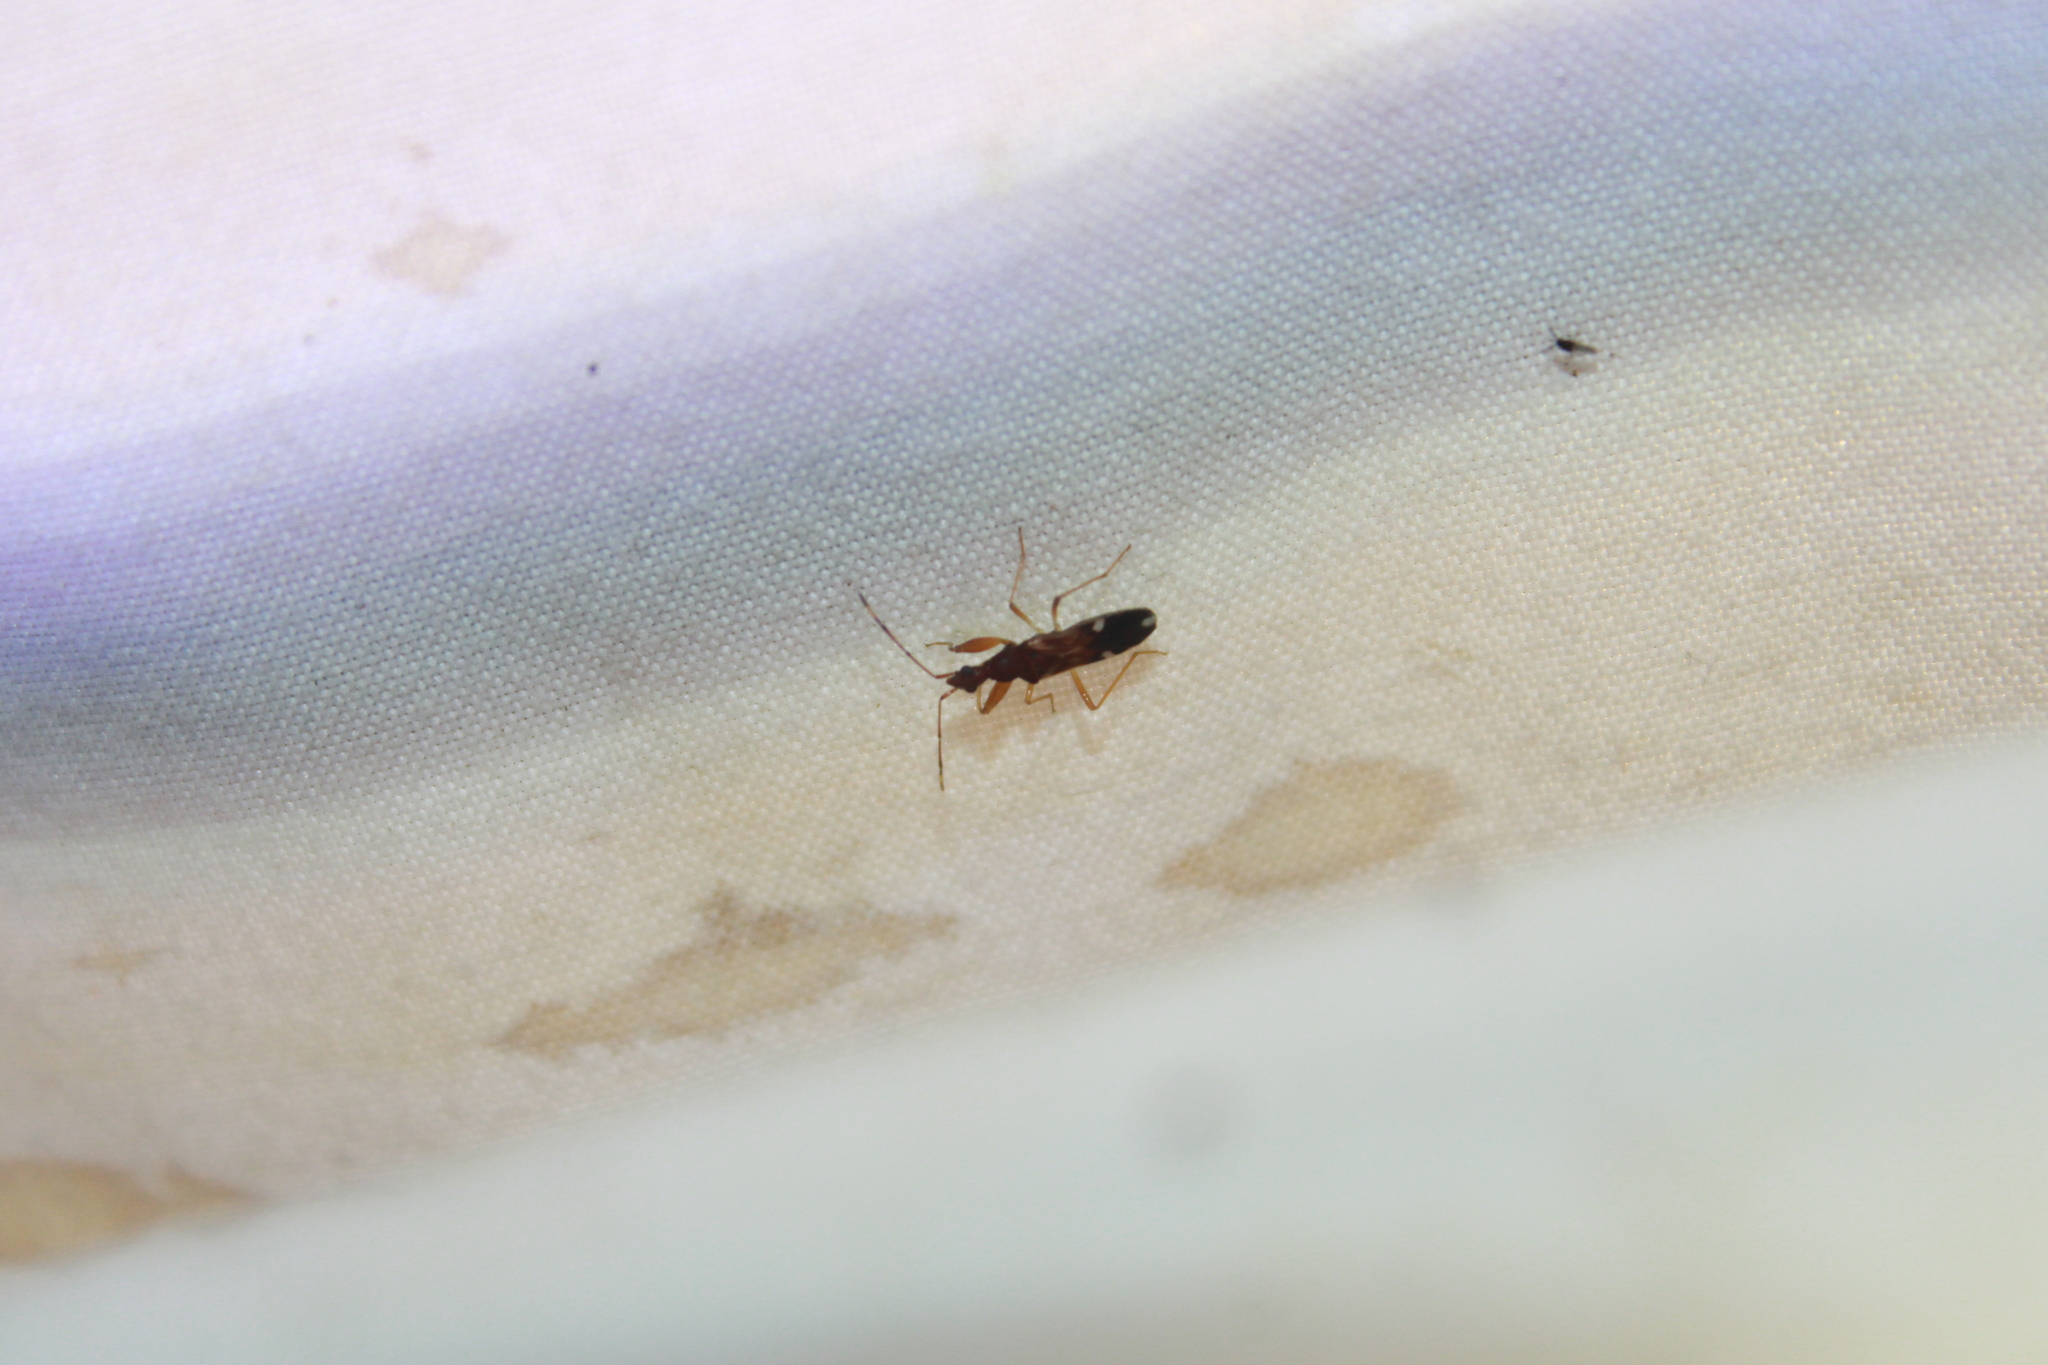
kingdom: Animalia
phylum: Arthropoda
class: Insecta
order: Hemiptera
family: Rhyparochromidae
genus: Heraeus
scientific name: Heraeus triguttatus
